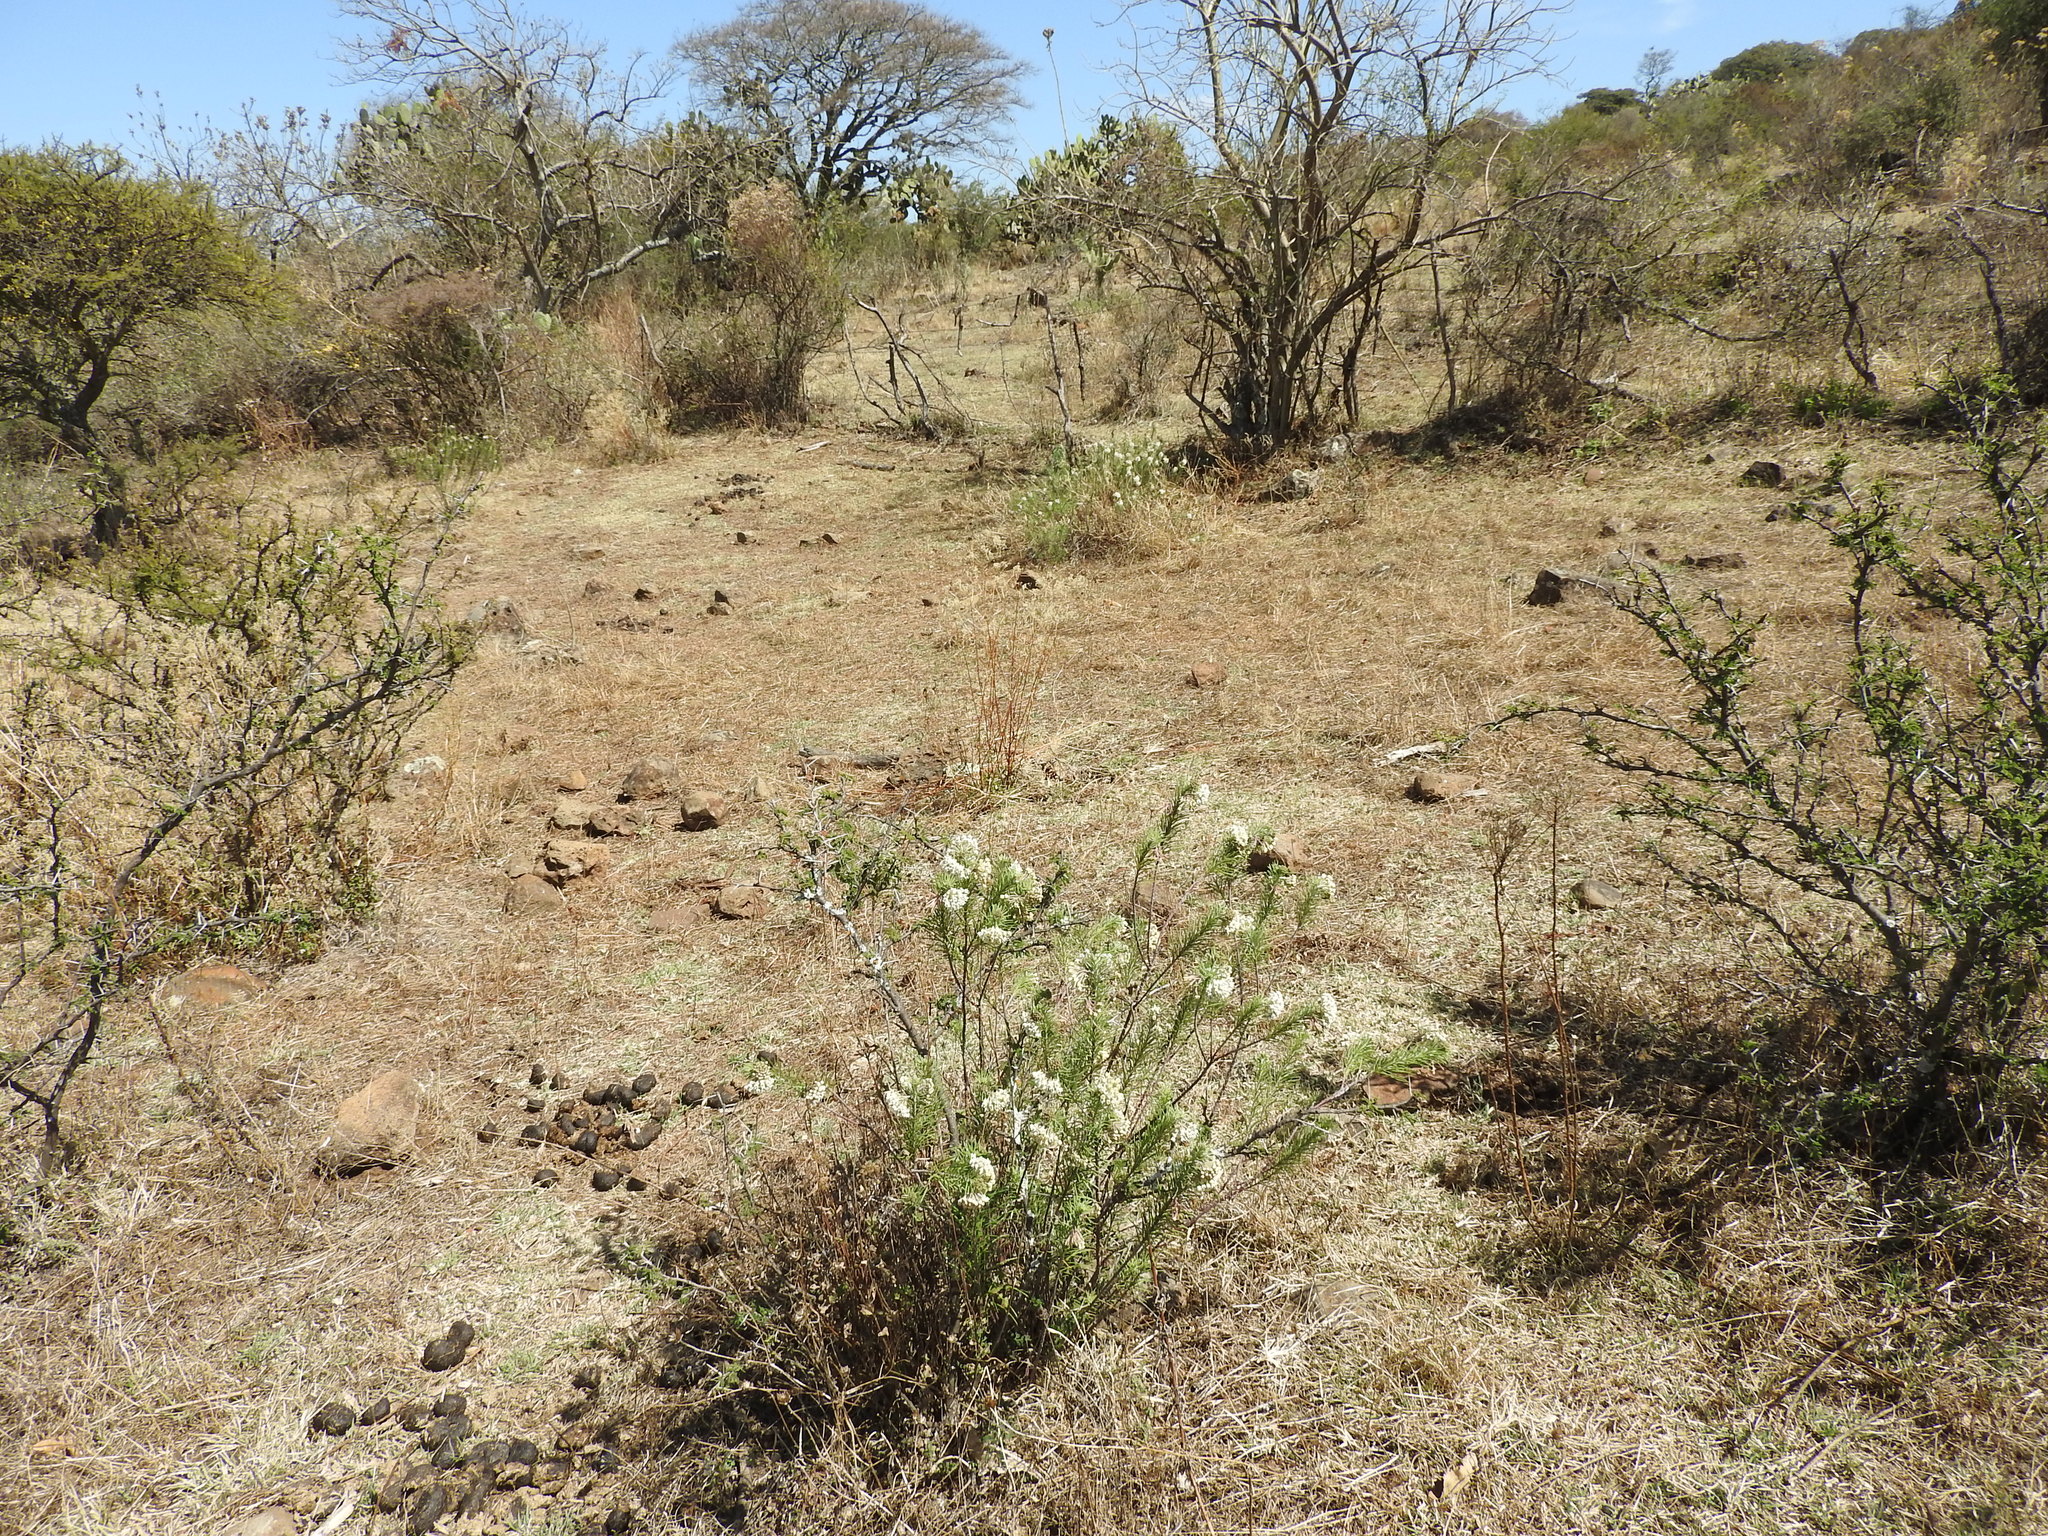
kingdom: Plantae
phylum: Tracheophyta
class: Magnoliopsida
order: Gentianales
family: Apocynaceae
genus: Asclepias
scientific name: Asclepias linaria
